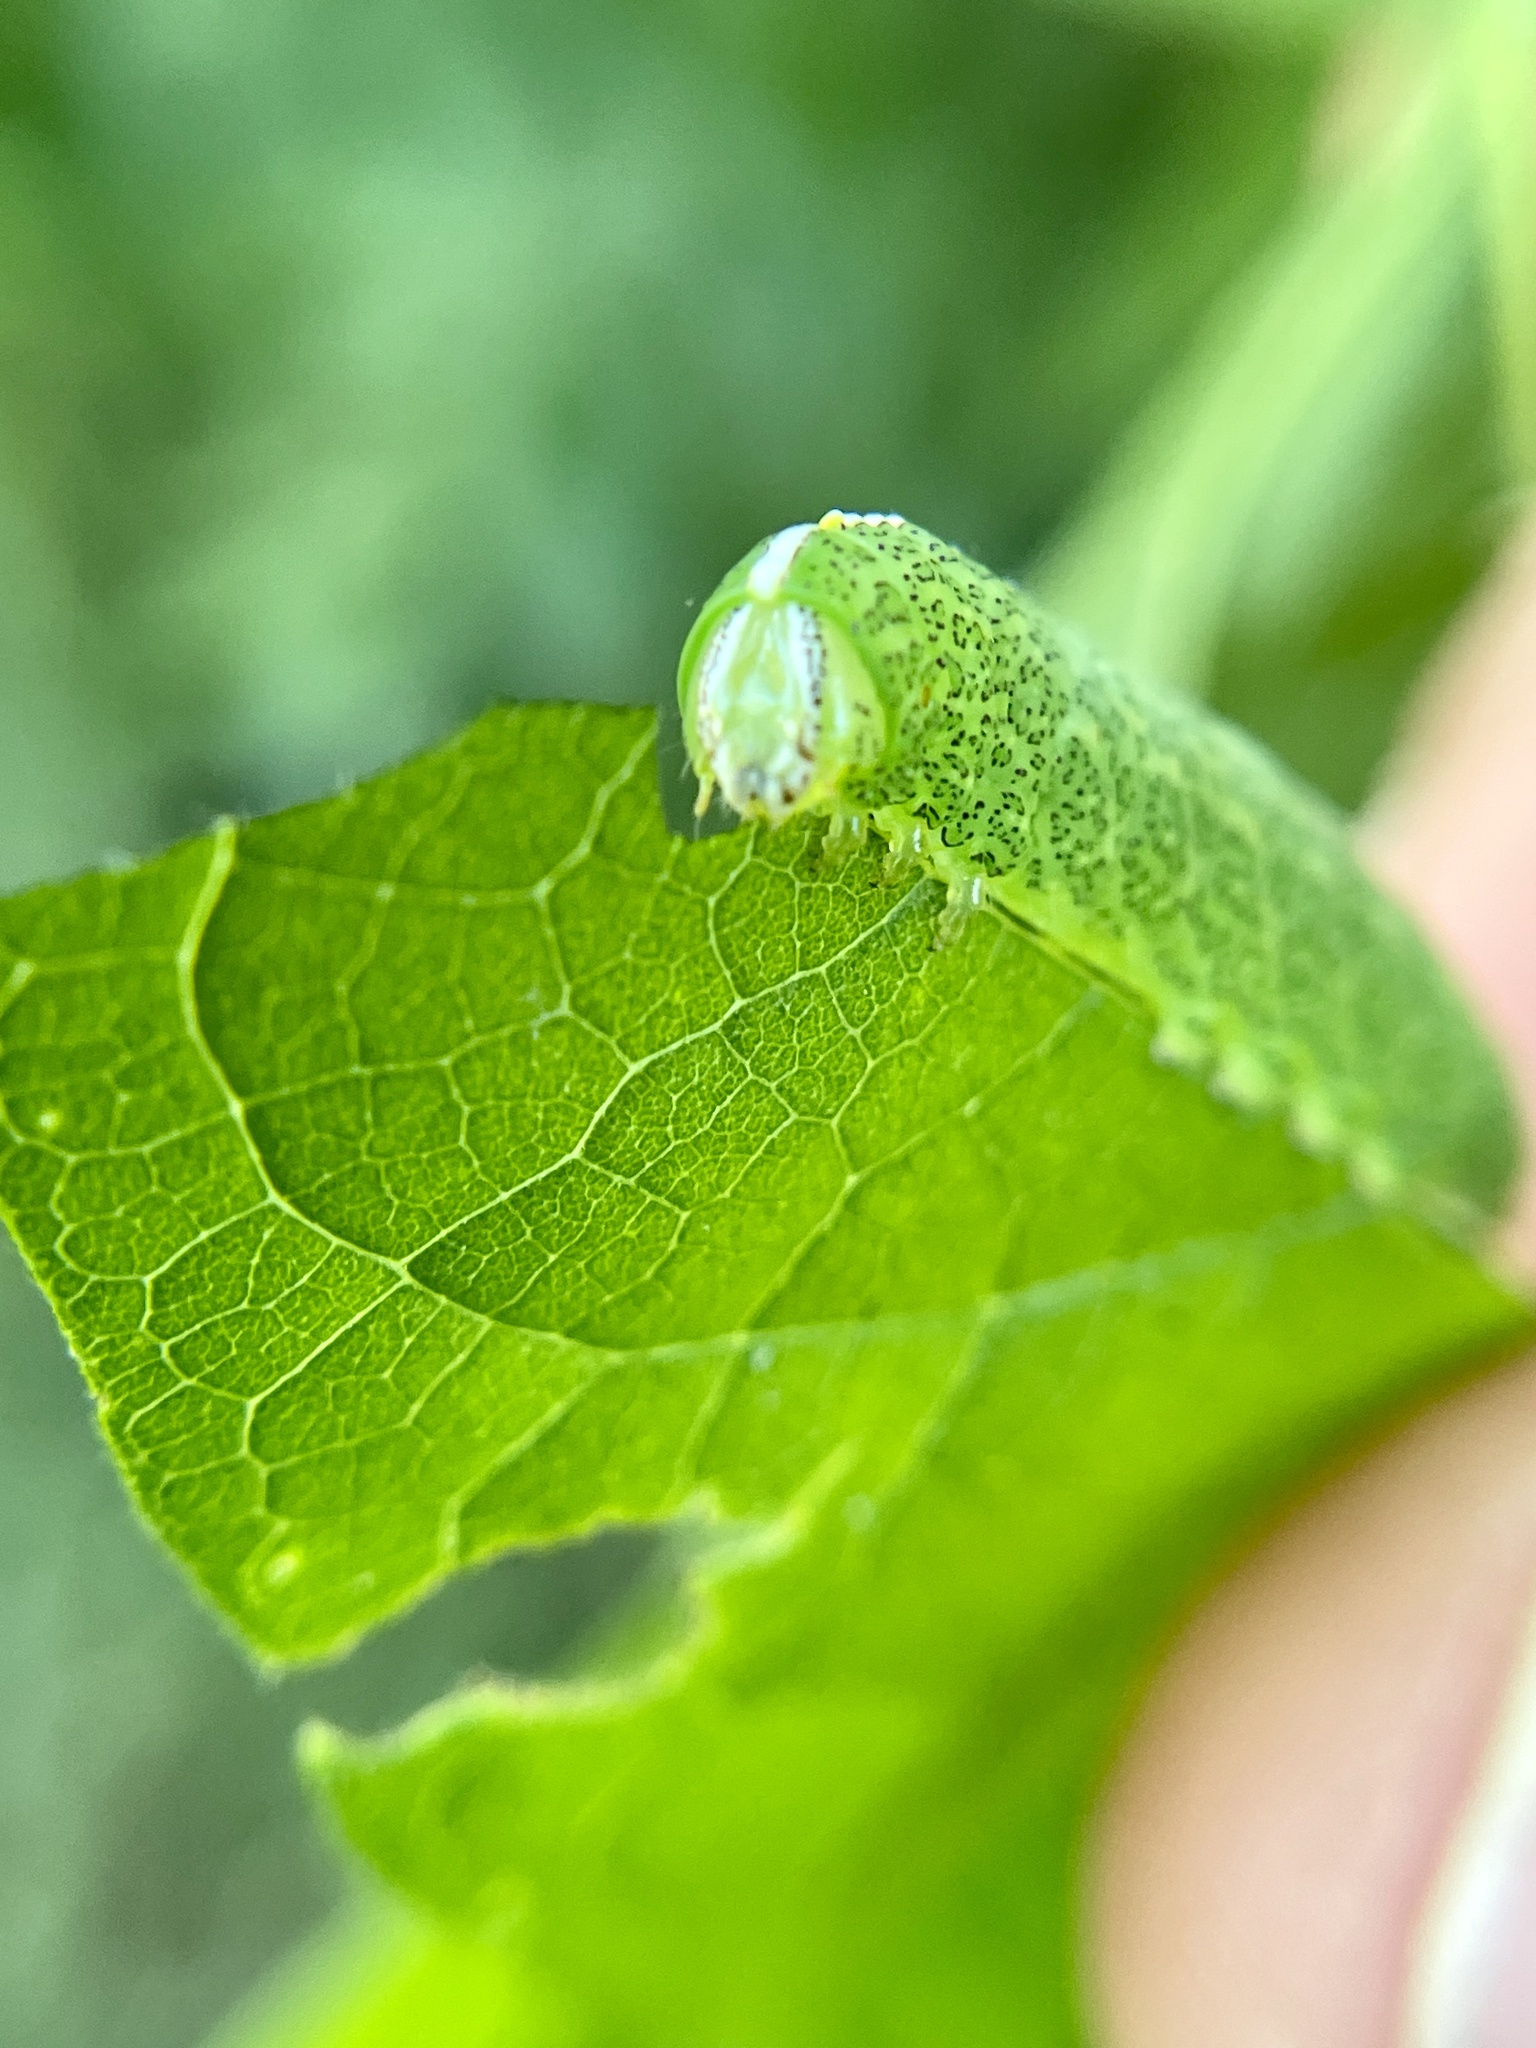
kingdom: Animalia
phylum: Arthropoda
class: Insecta
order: Lepidoptera
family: Notodontidae
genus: Rifargia
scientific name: Rifargia
